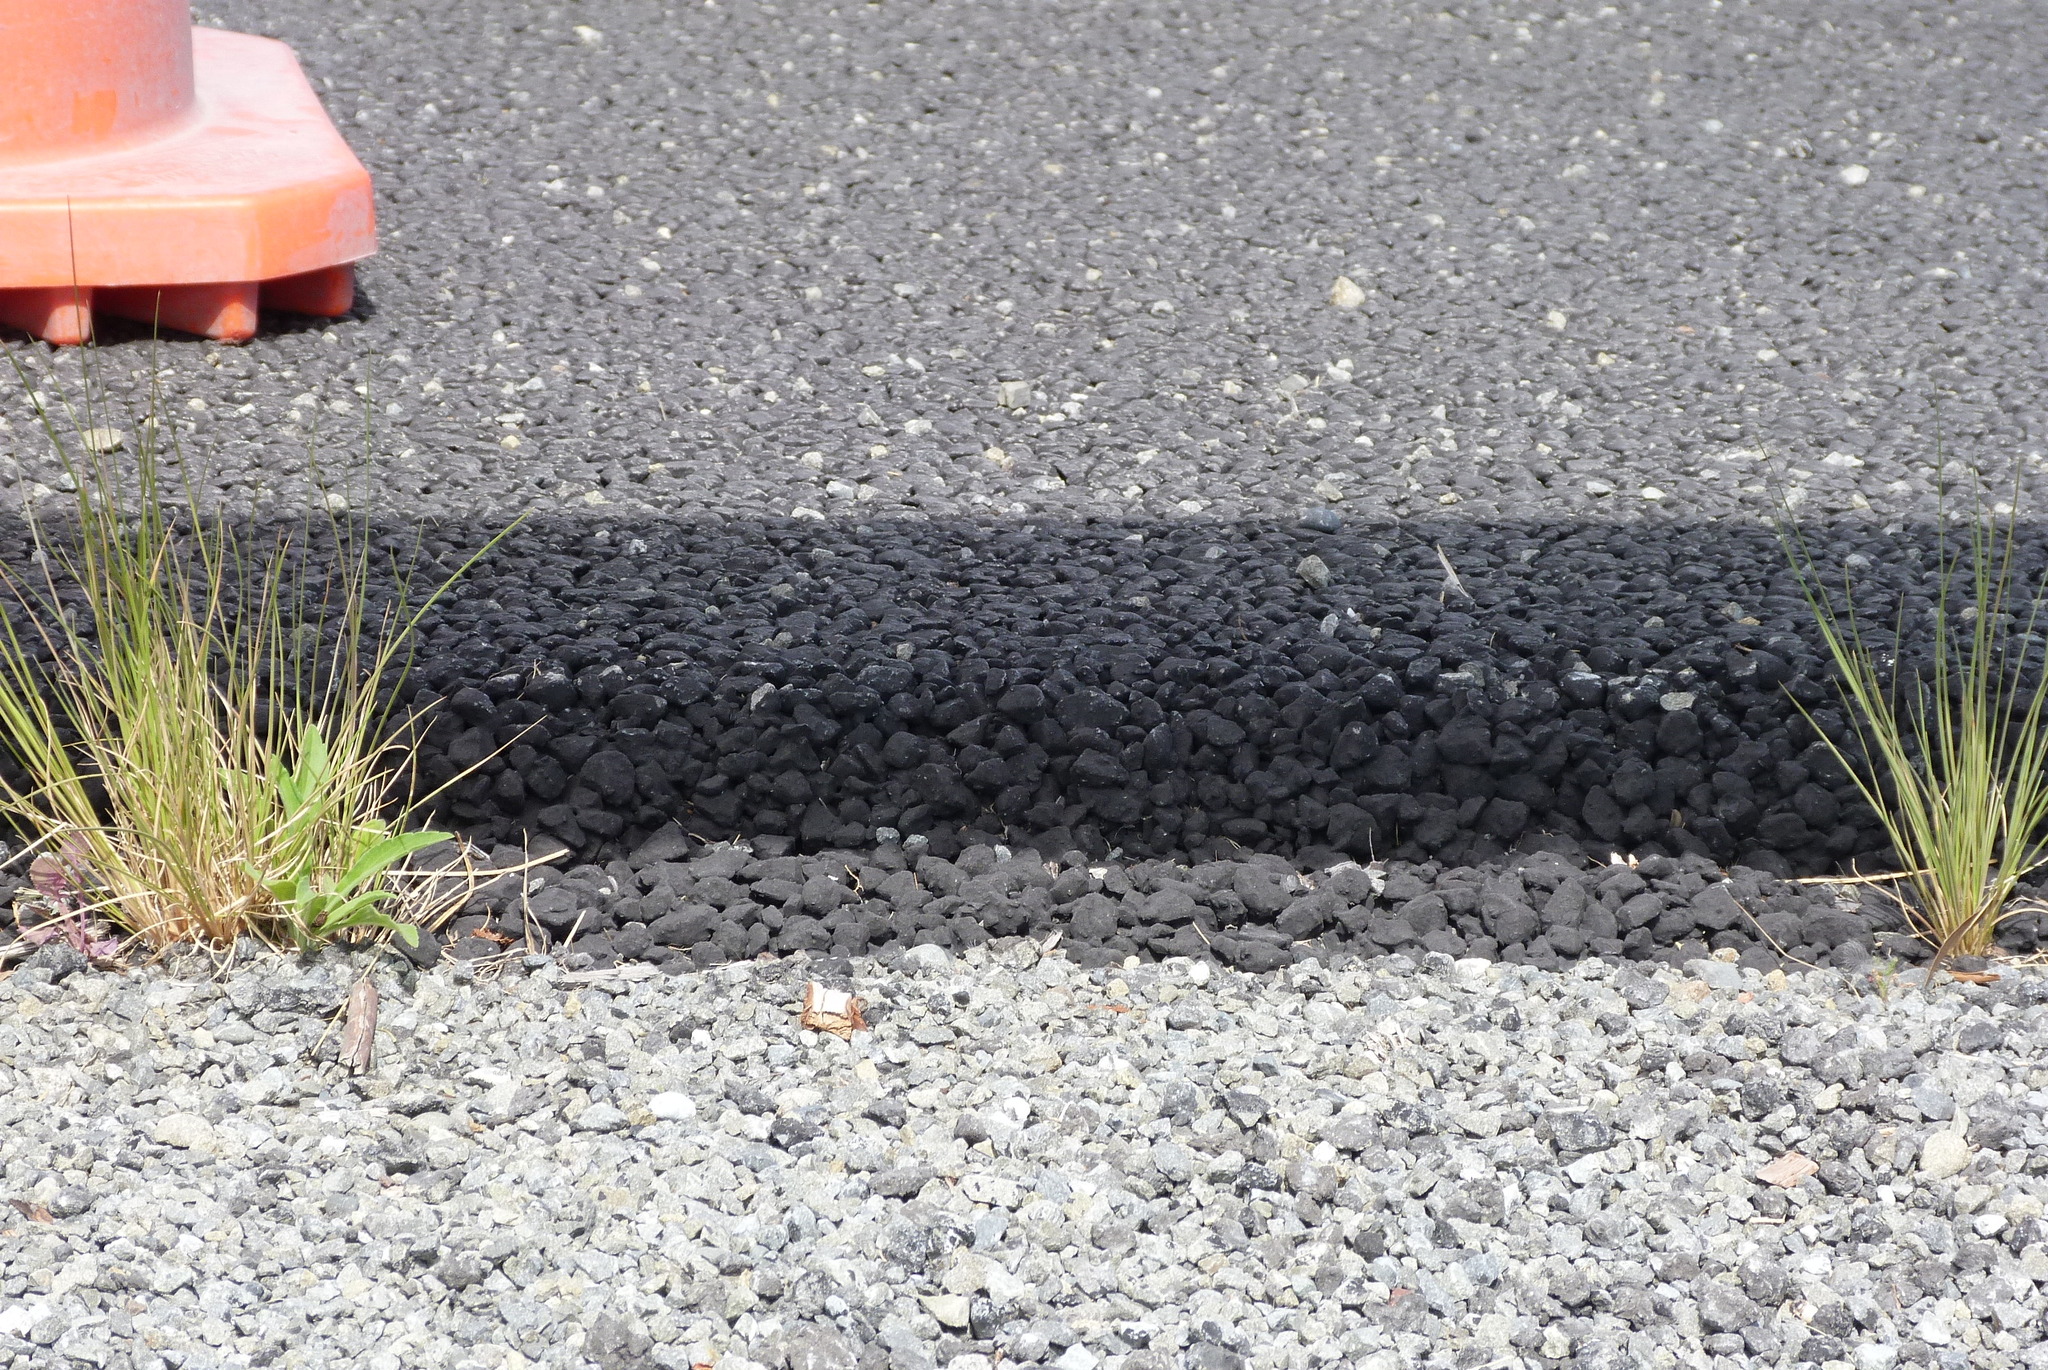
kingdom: Plantae
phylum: Tracheophyta
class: Liliopsida
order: Poales
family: Poaceae
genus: Poa
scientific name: Poa cita
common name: Silver tussock
